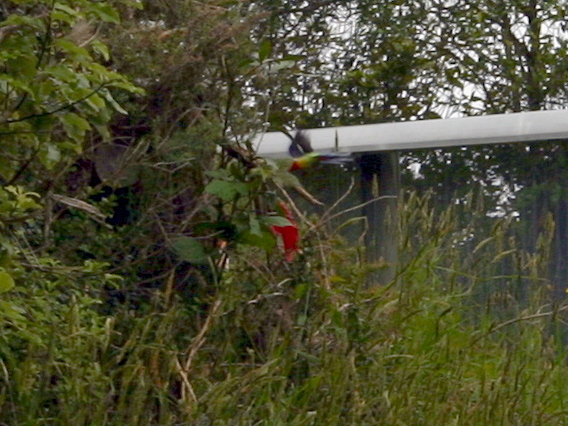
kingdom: Animalia
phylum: Chordata
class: Aves
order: Psittaciformes
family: Psittacidae
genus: Platycercus
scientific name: Platycercus eximius
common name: Eastern rosella
